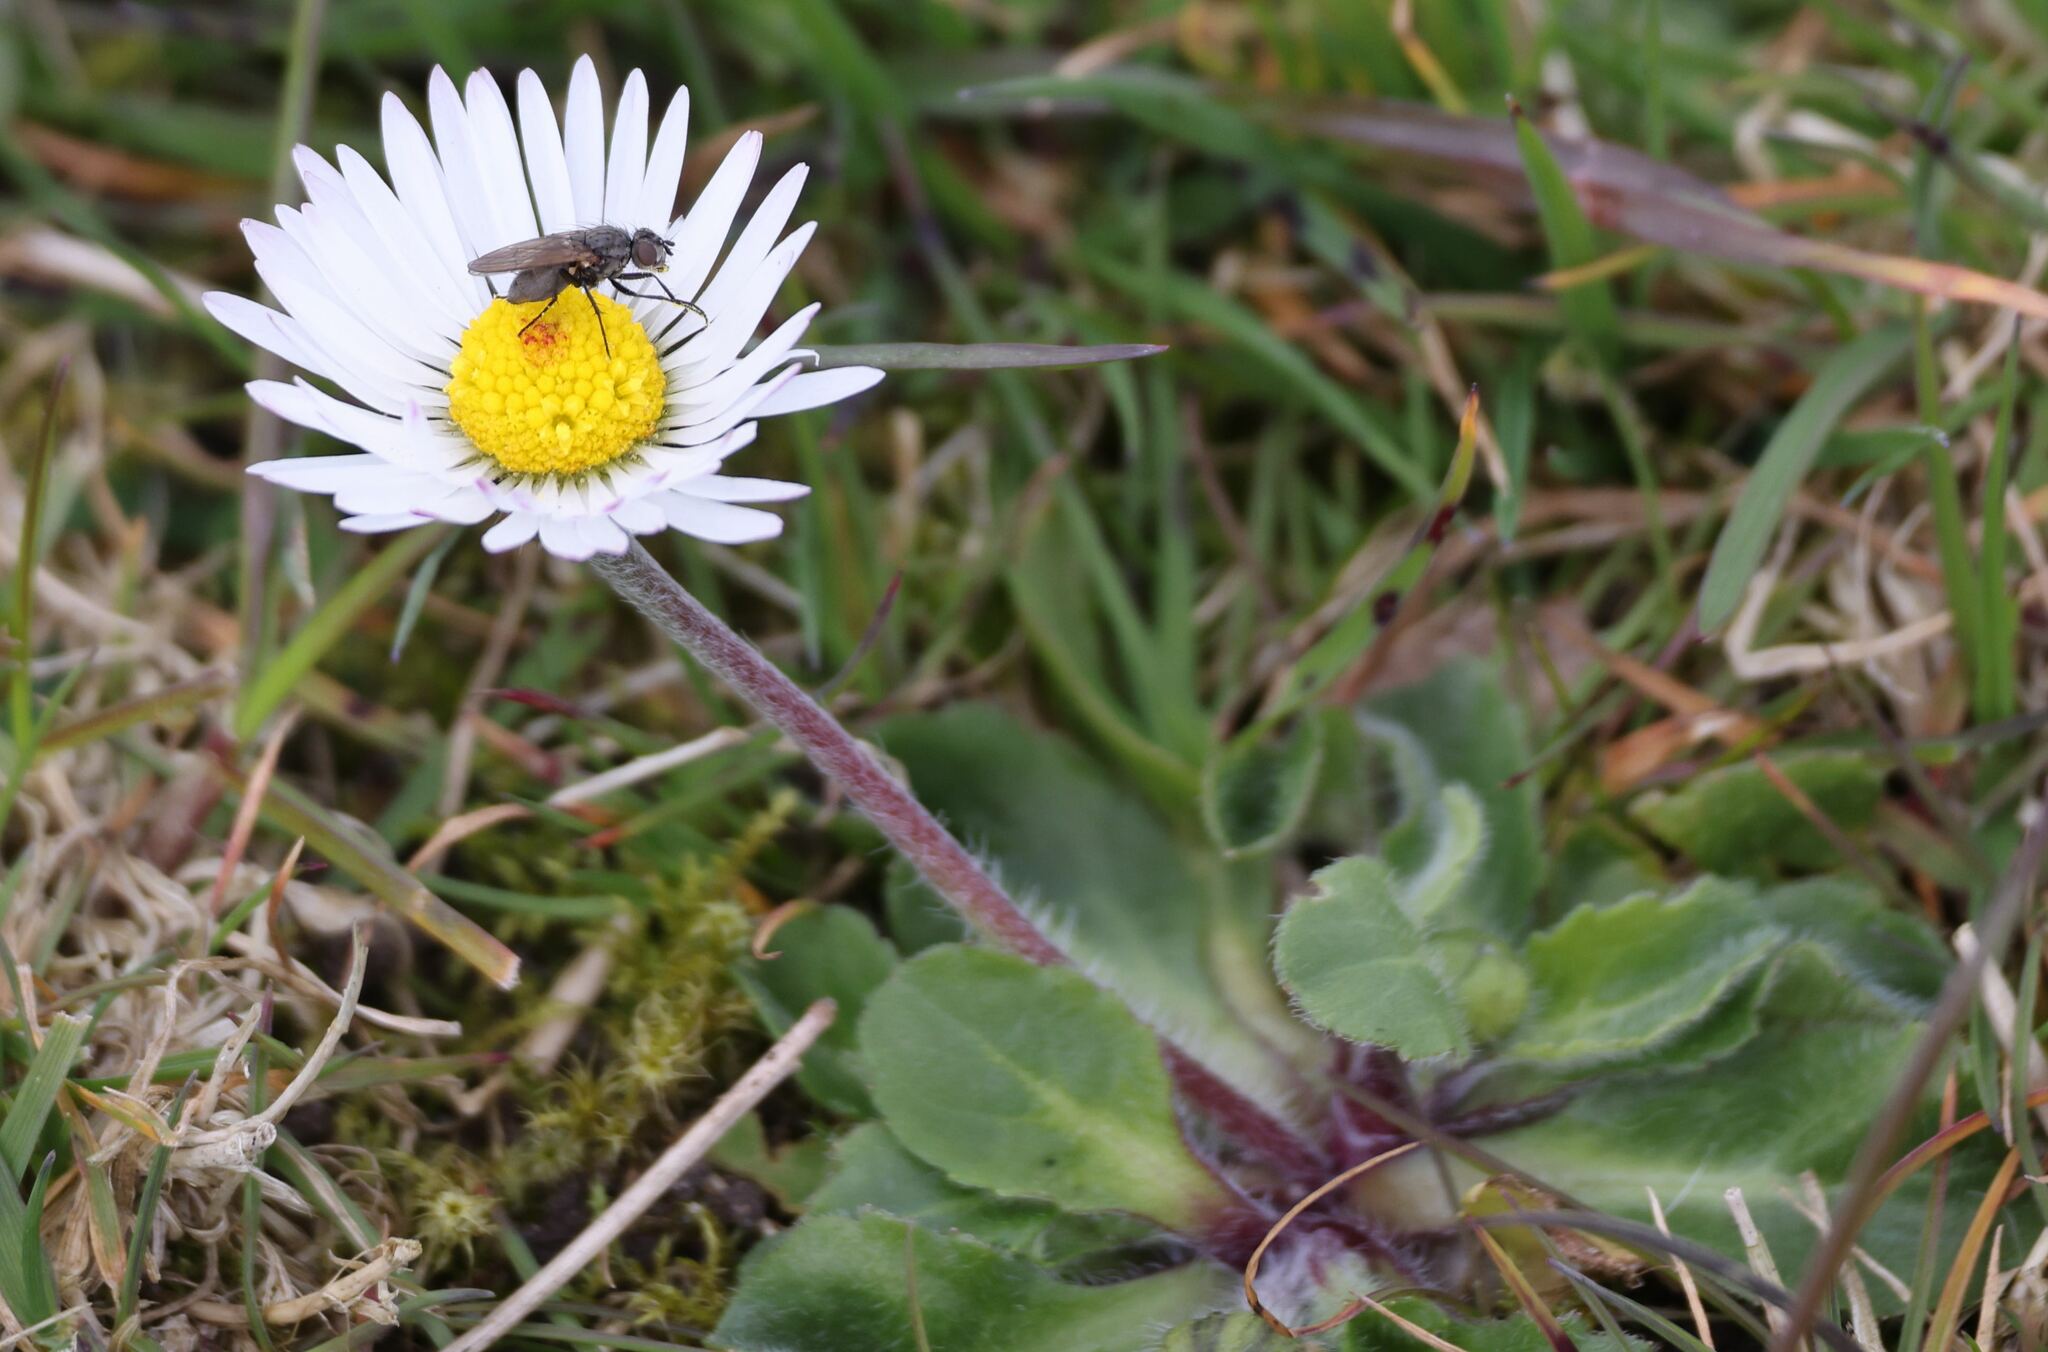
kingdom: Plantae
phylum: Tracheophyta
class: Magnoliopsida
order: Asterales
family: Asteraceae
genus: Bellis
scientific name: Bellis perennis
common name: Lawndaisy
